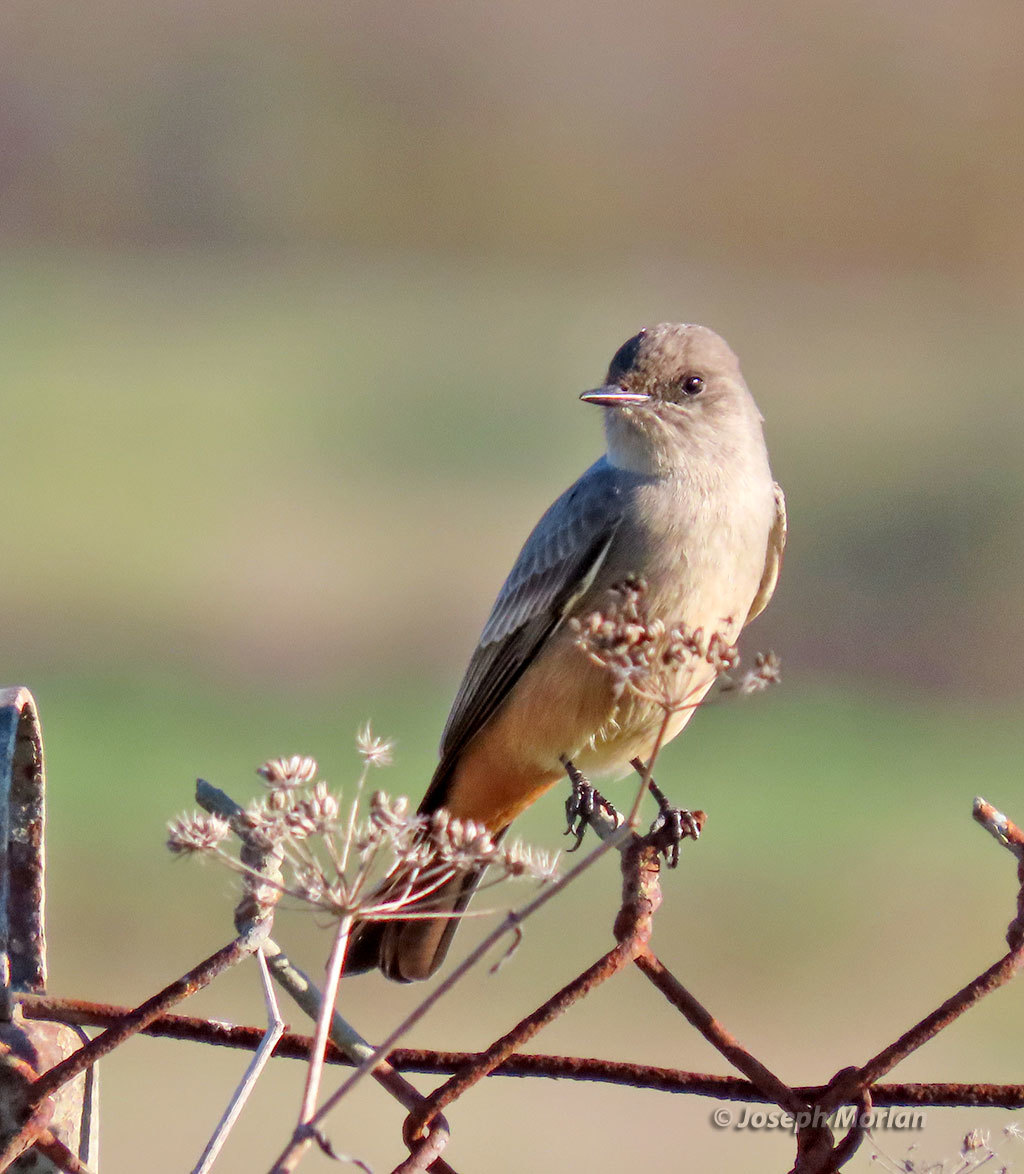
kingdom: Animalia
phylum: Chordata
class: Aves
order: Passeriformes
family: Tyrannidae
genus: Sayornis
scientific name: Sayornis saya
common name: Say's phoebe
